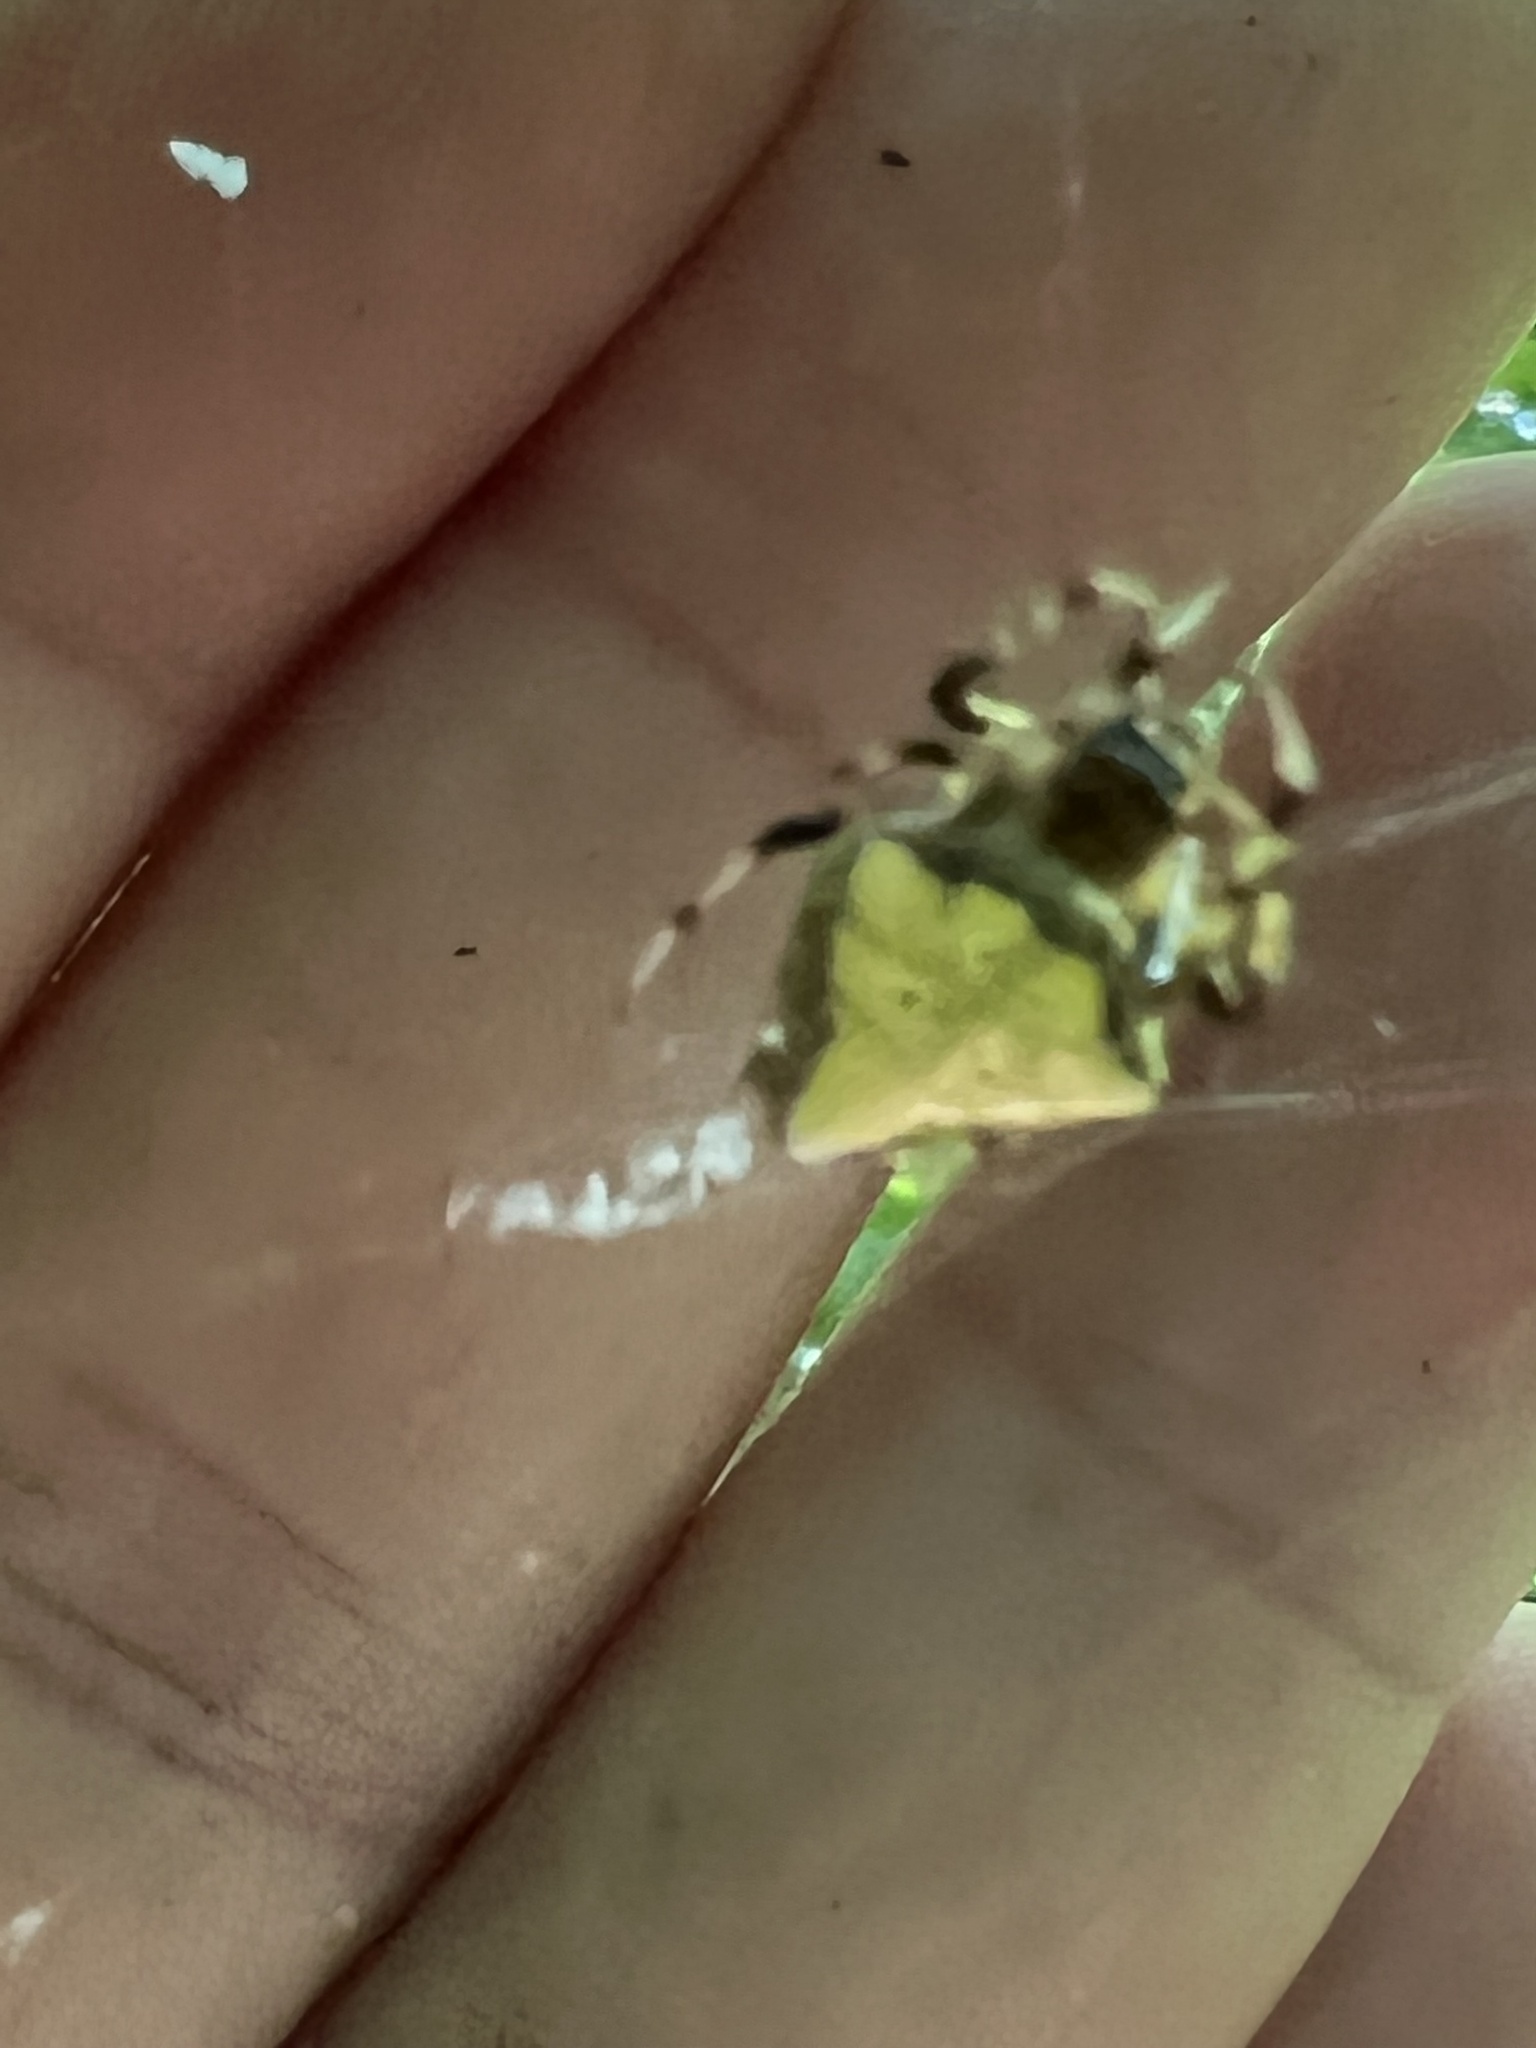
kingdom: Animalia
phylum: Arthropoda
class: Arachnida
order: Araneae
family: Araneidae
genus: Verrucosa
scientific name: Verrucosa arenata
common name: Orb weavers
